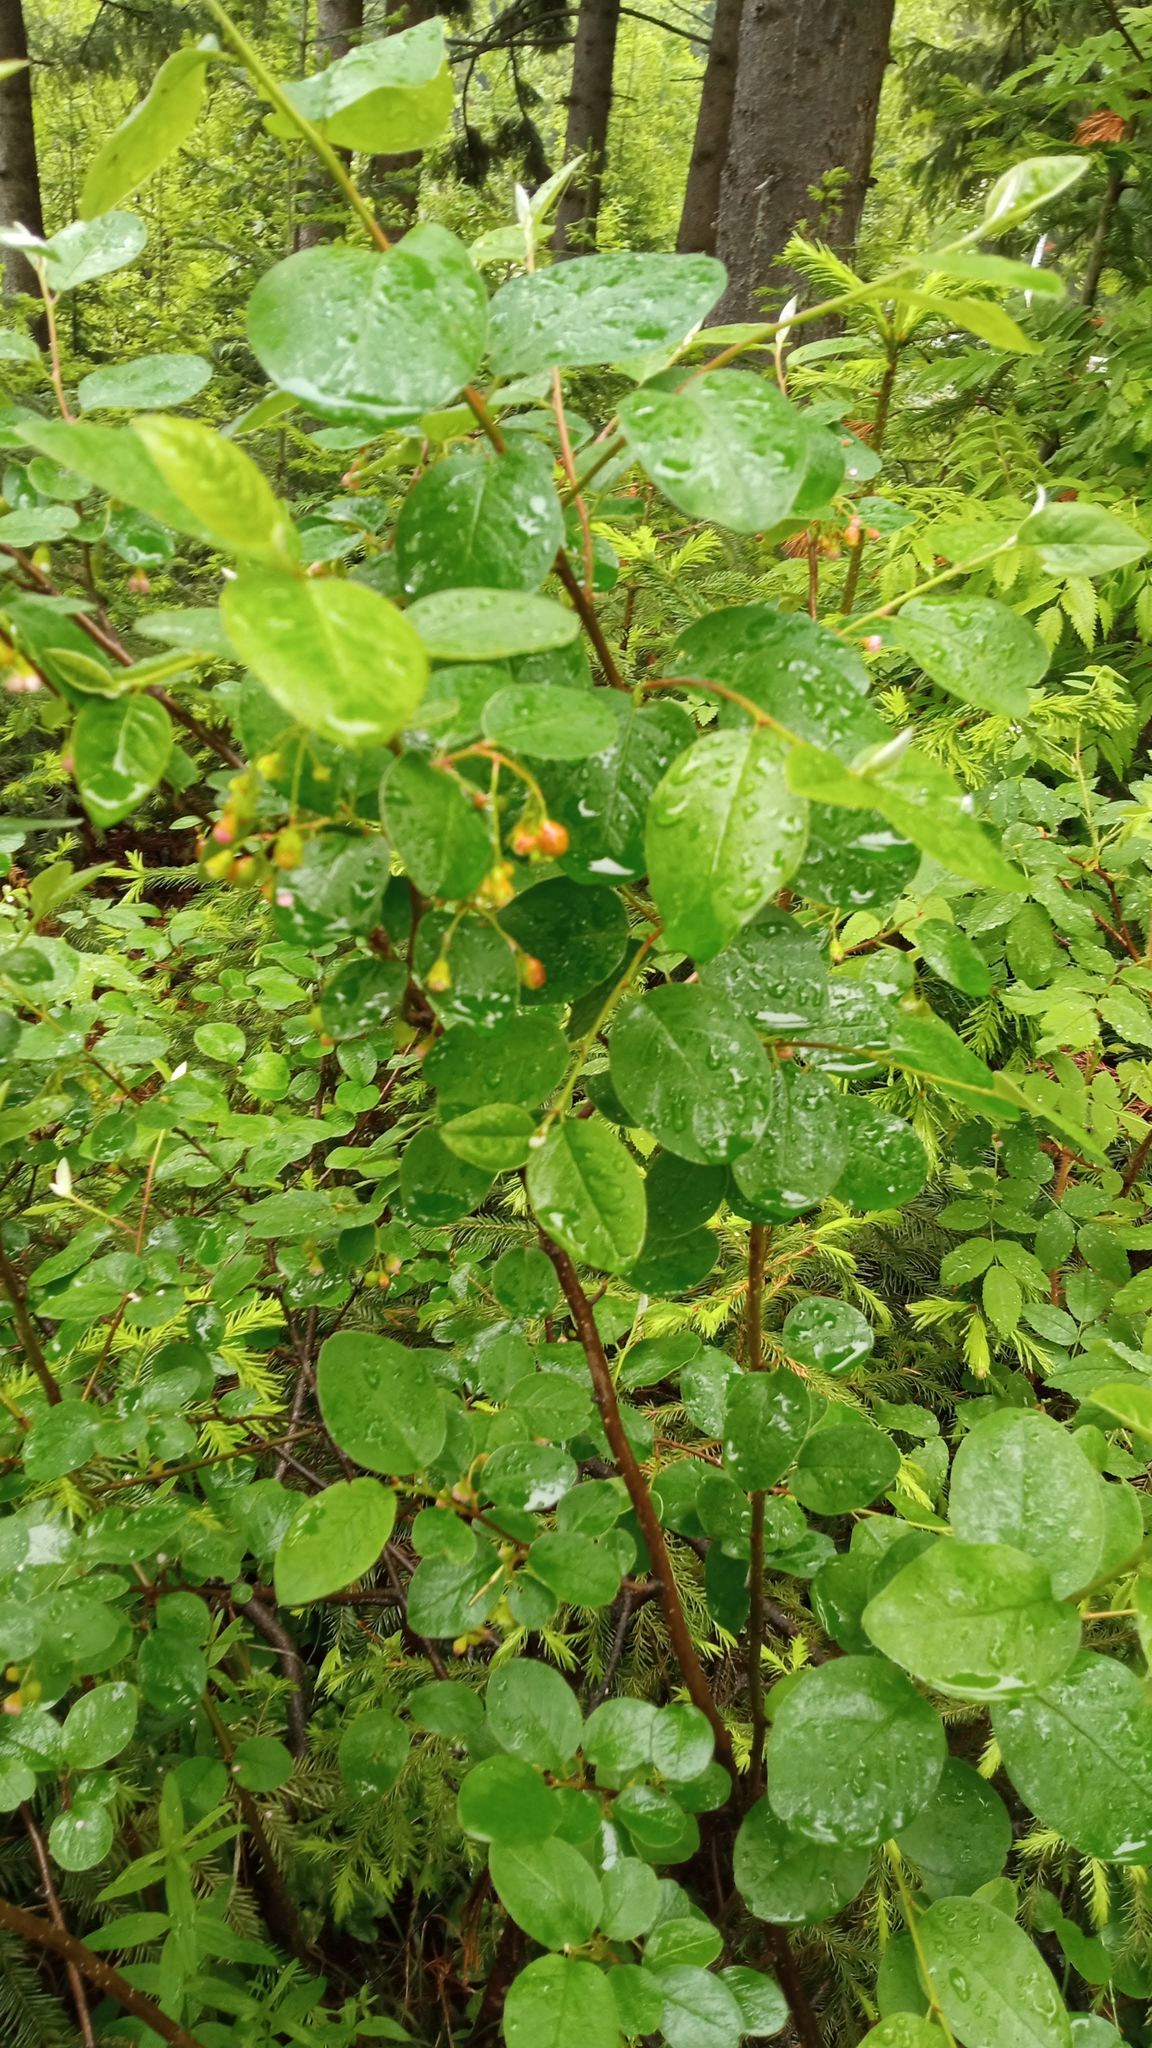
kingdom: Plantae
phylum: Tracheophyta
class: Magnoliopsida
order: Rosales
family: Rosaceae
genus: Cotoneaster
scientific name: Cotoneaster melanocarpus
